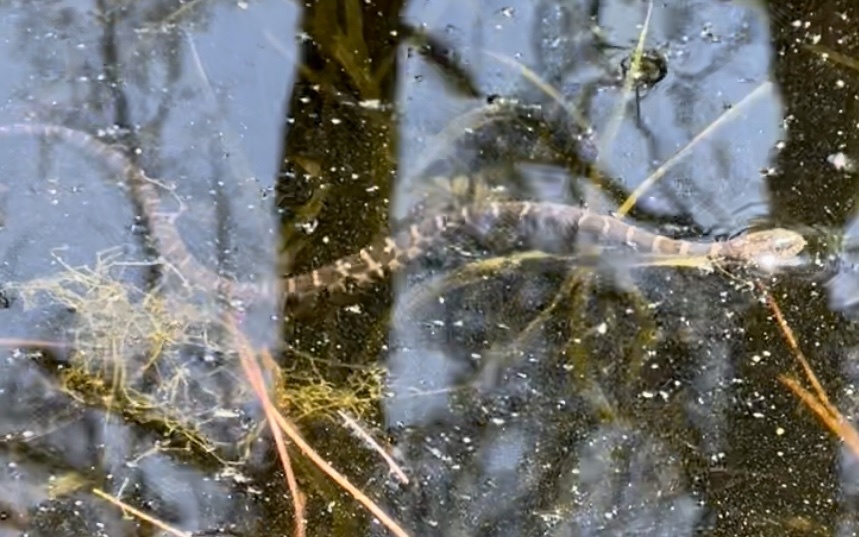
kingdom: Animalia
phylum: Chordata
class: Squamata
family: Colubridae
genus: Nerodia
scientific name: Nerodia sipedon
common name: Northern water snake
